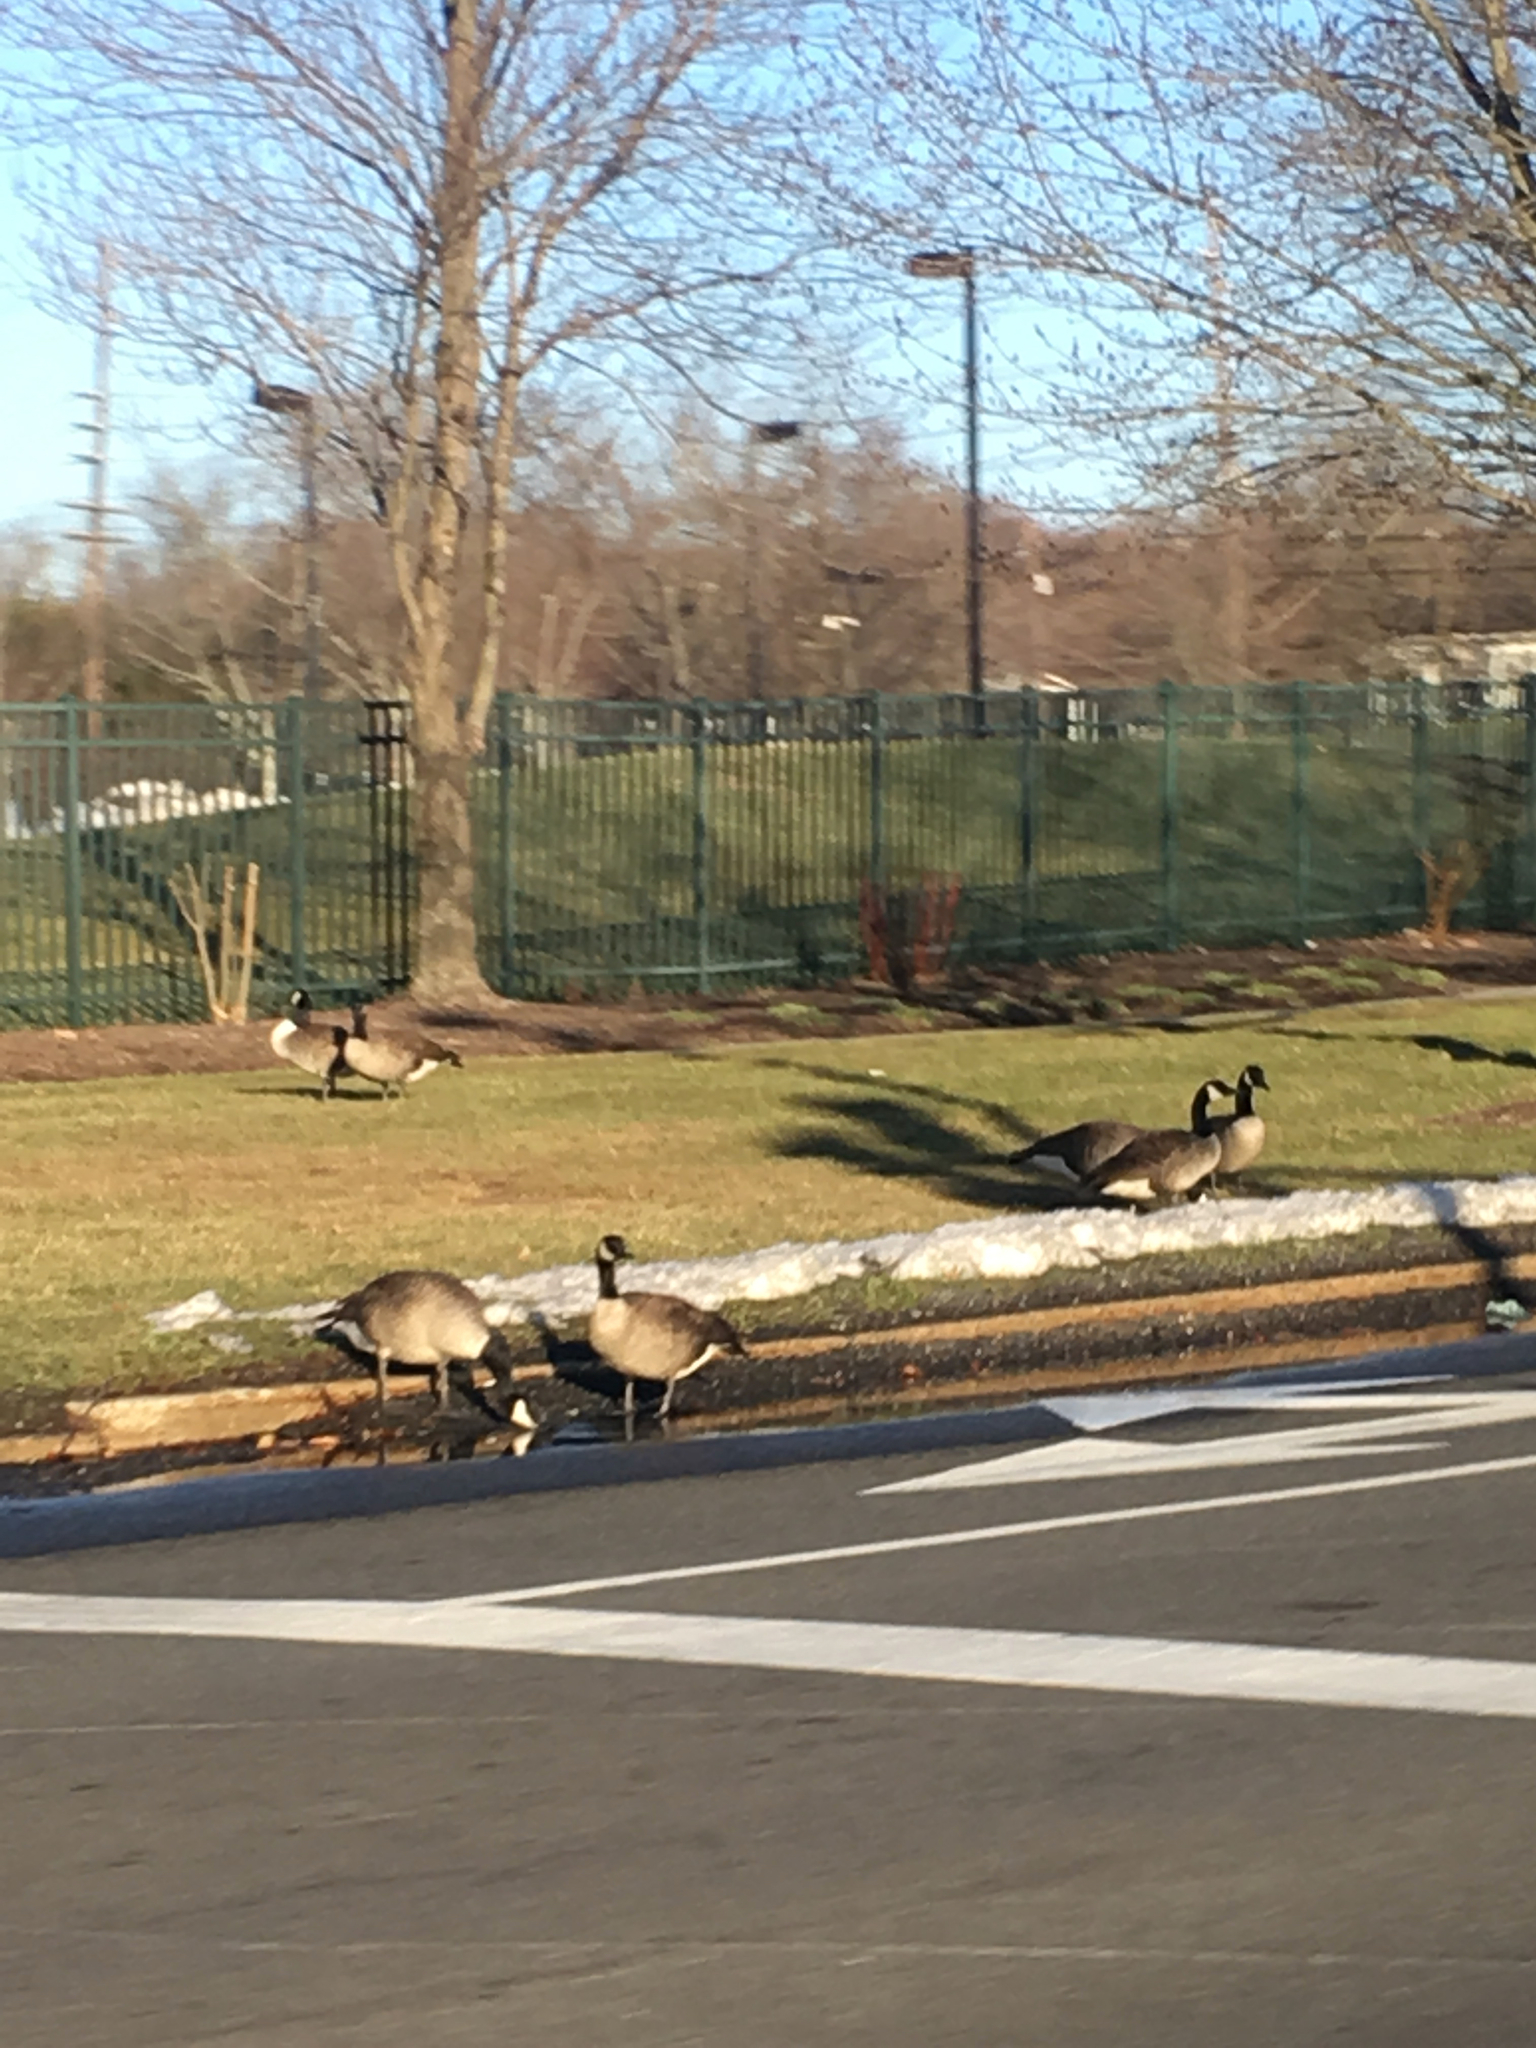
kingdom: Animalia
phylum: Chordata
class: Aves
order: Anseriformes
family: Anatidae
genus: Branta
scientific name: Branta canadensis
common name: Canada goose
